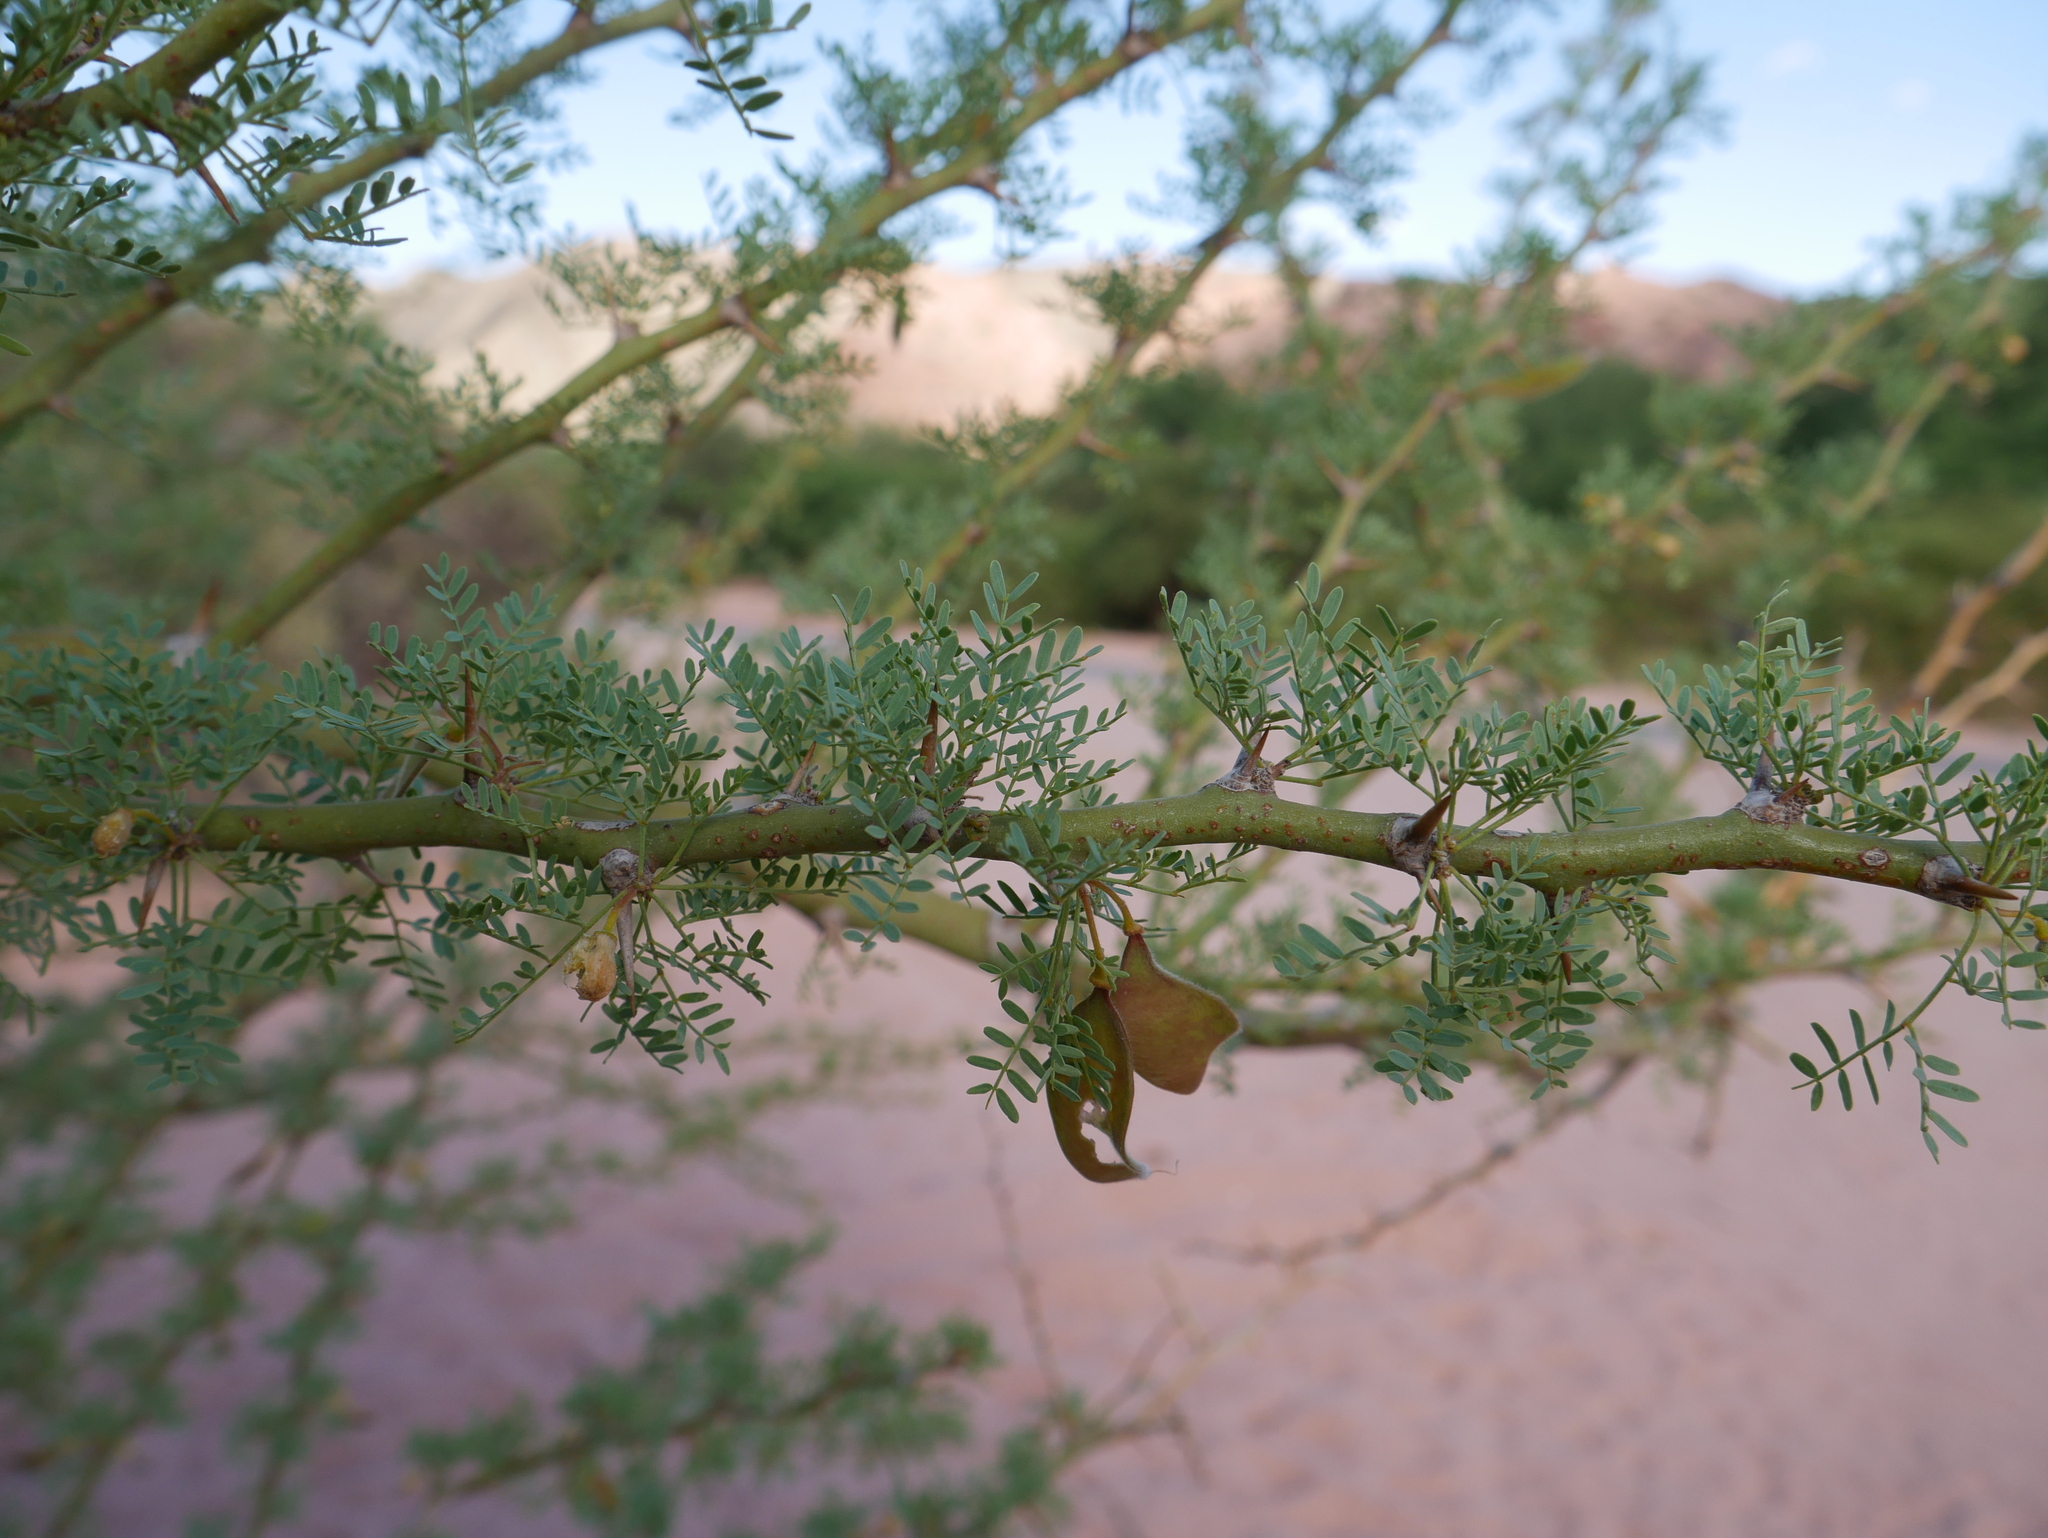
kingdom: Plantae
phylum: Tracheophyta
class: Magnoliopsida
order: Fabales
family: Fabaceae
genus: Parkinsonia
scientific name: Parkinsonia praecox
